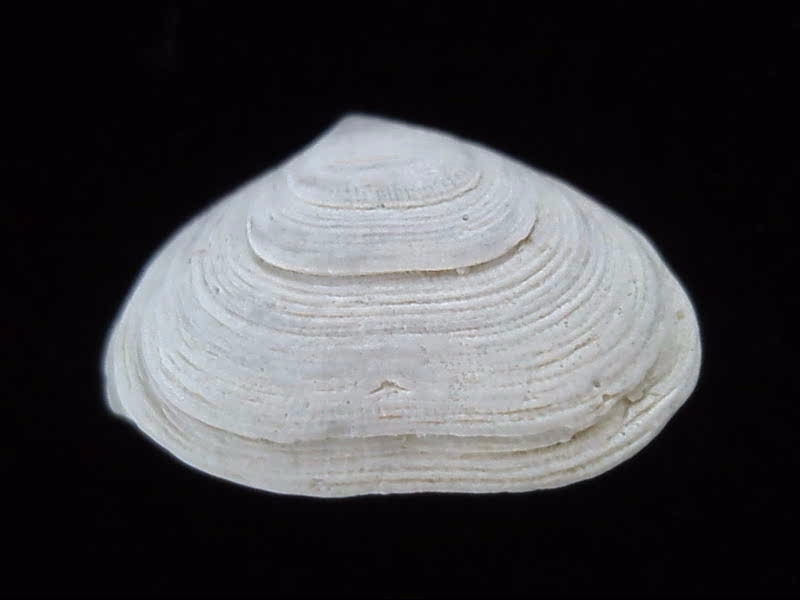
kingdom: Animalia
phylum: Mollusca
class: Bivalvia
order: Galeommatida
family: Lasaeidae
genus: Borniola
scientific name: Borniola reniformis
